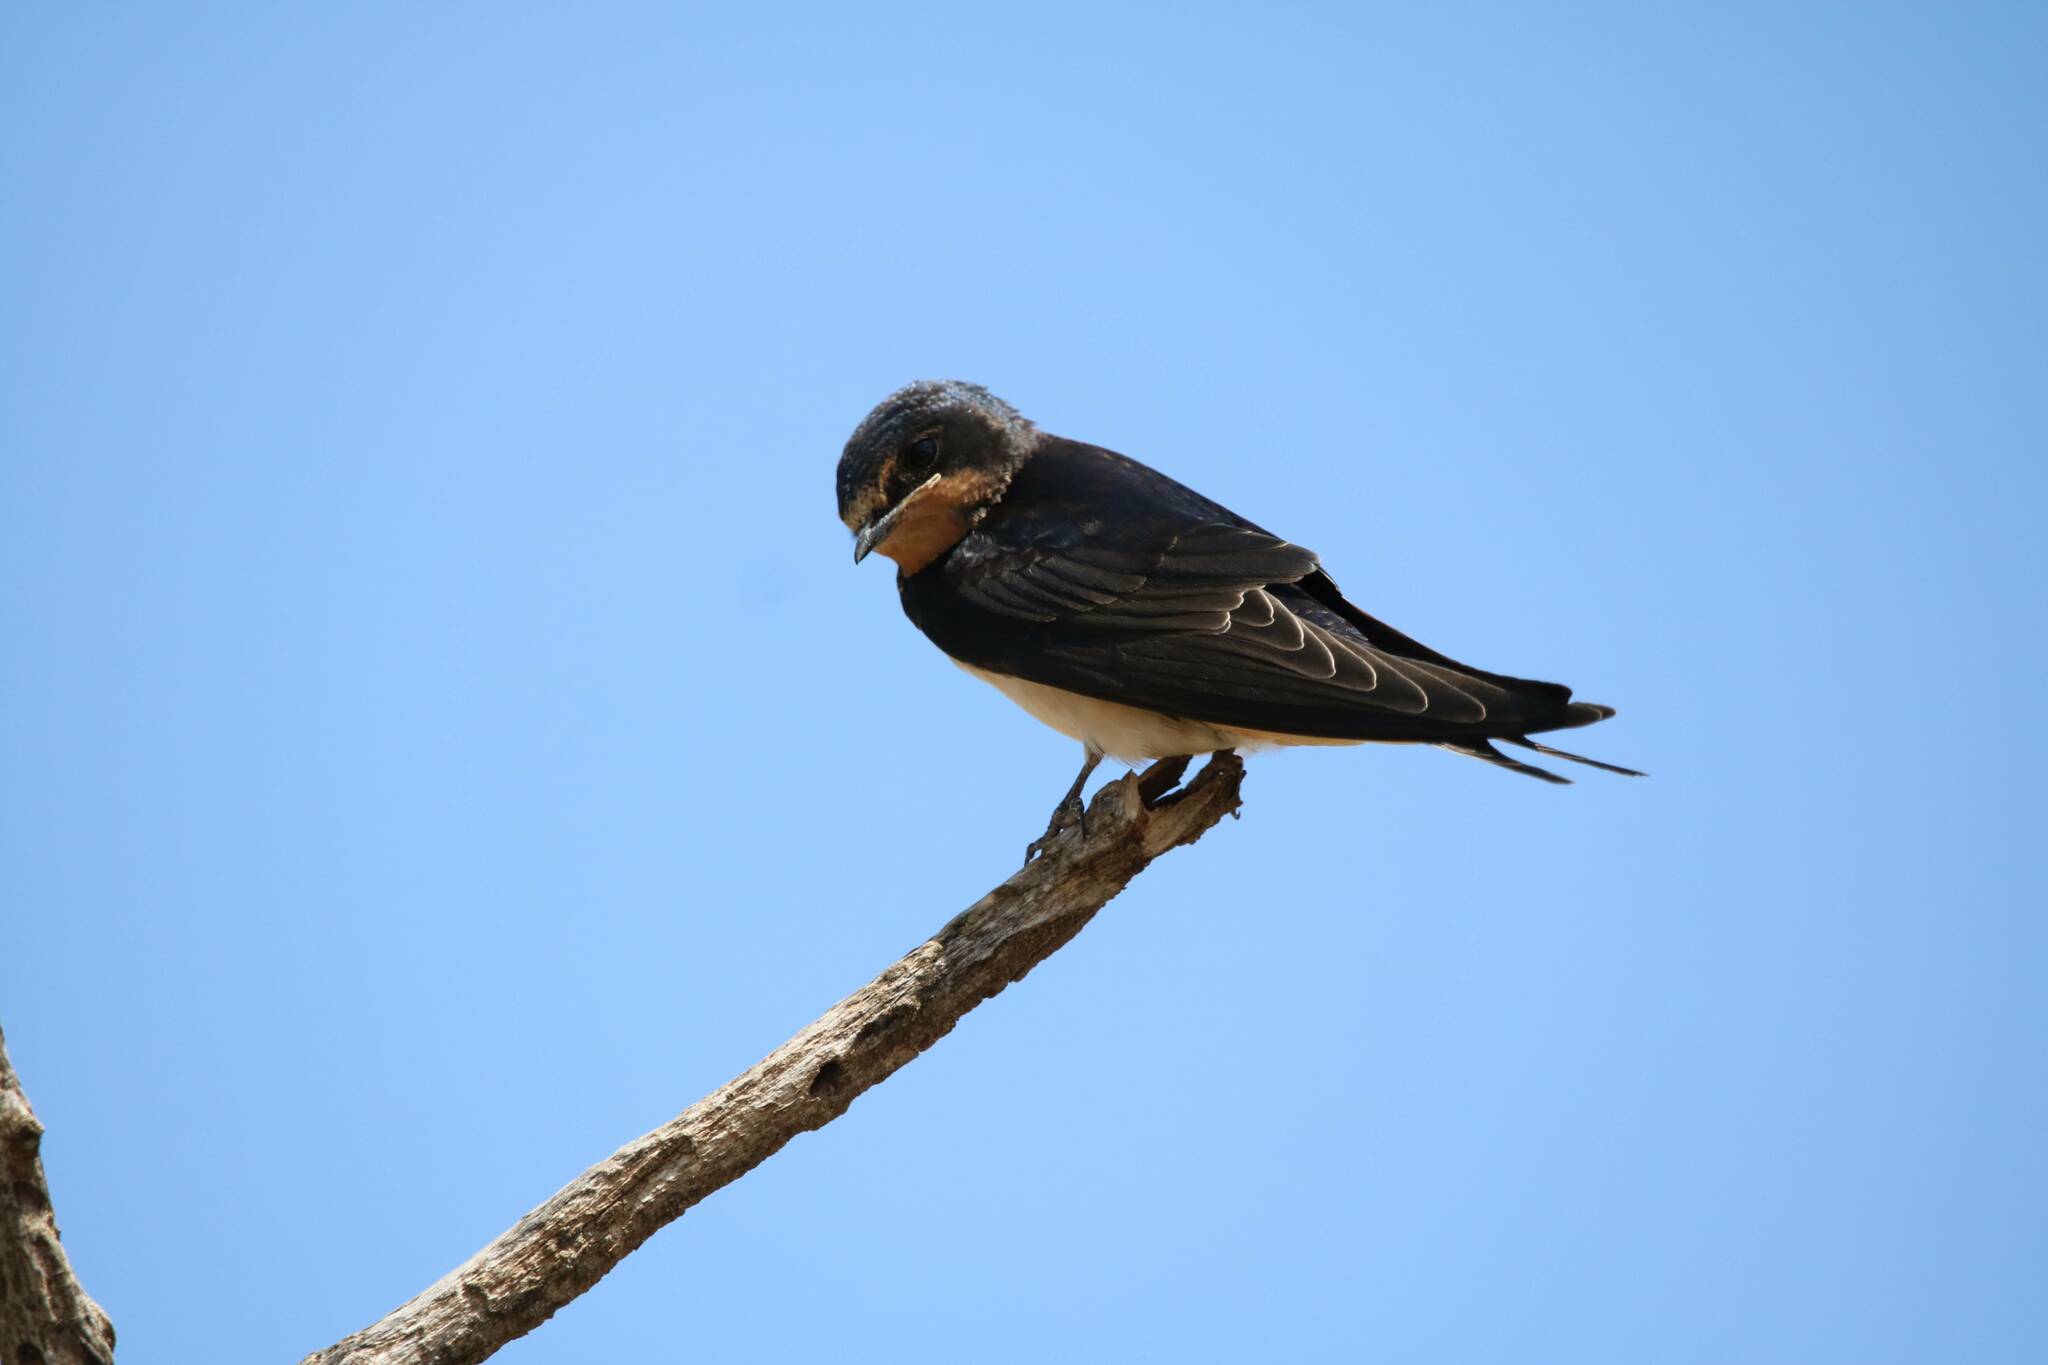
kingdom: Animalia
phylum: Chordata
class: Aves
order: Passeriformes
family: Hirundinidae
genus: Hirundo
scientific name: Hirundo rustica
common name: Barn swallow
